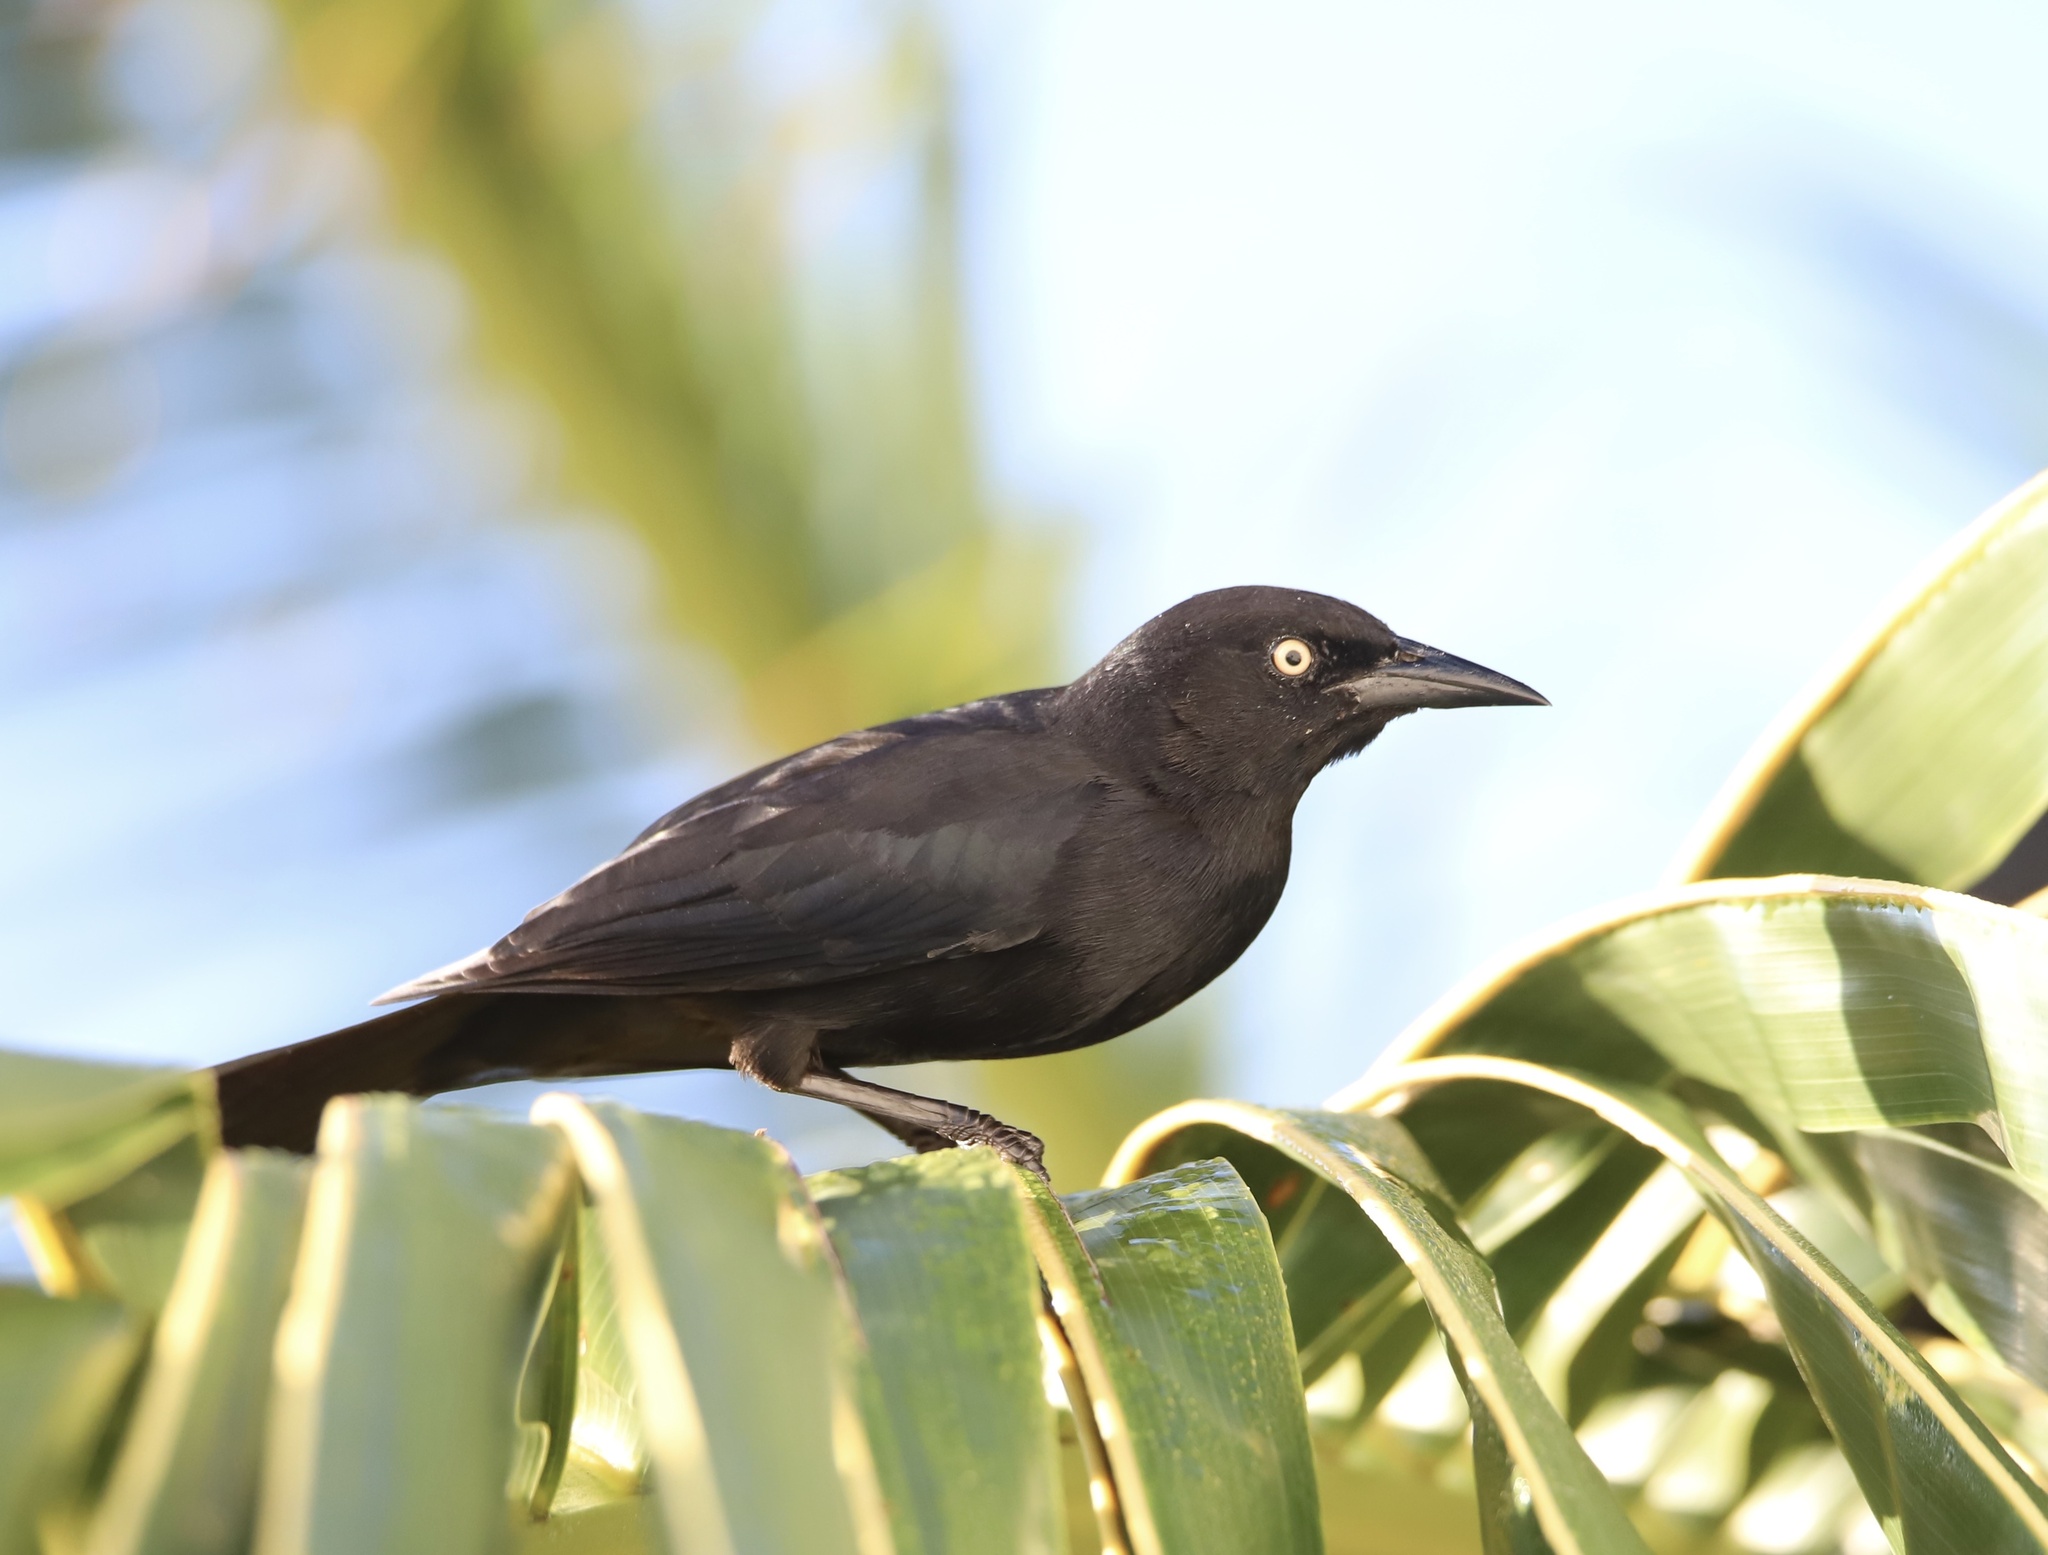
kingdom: Animalia
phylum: Chordata
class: Aves
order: Passeriformes
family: Icteridae
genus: Quiscalus
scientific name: Quiscalus niger
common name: Greater antillean grackle
